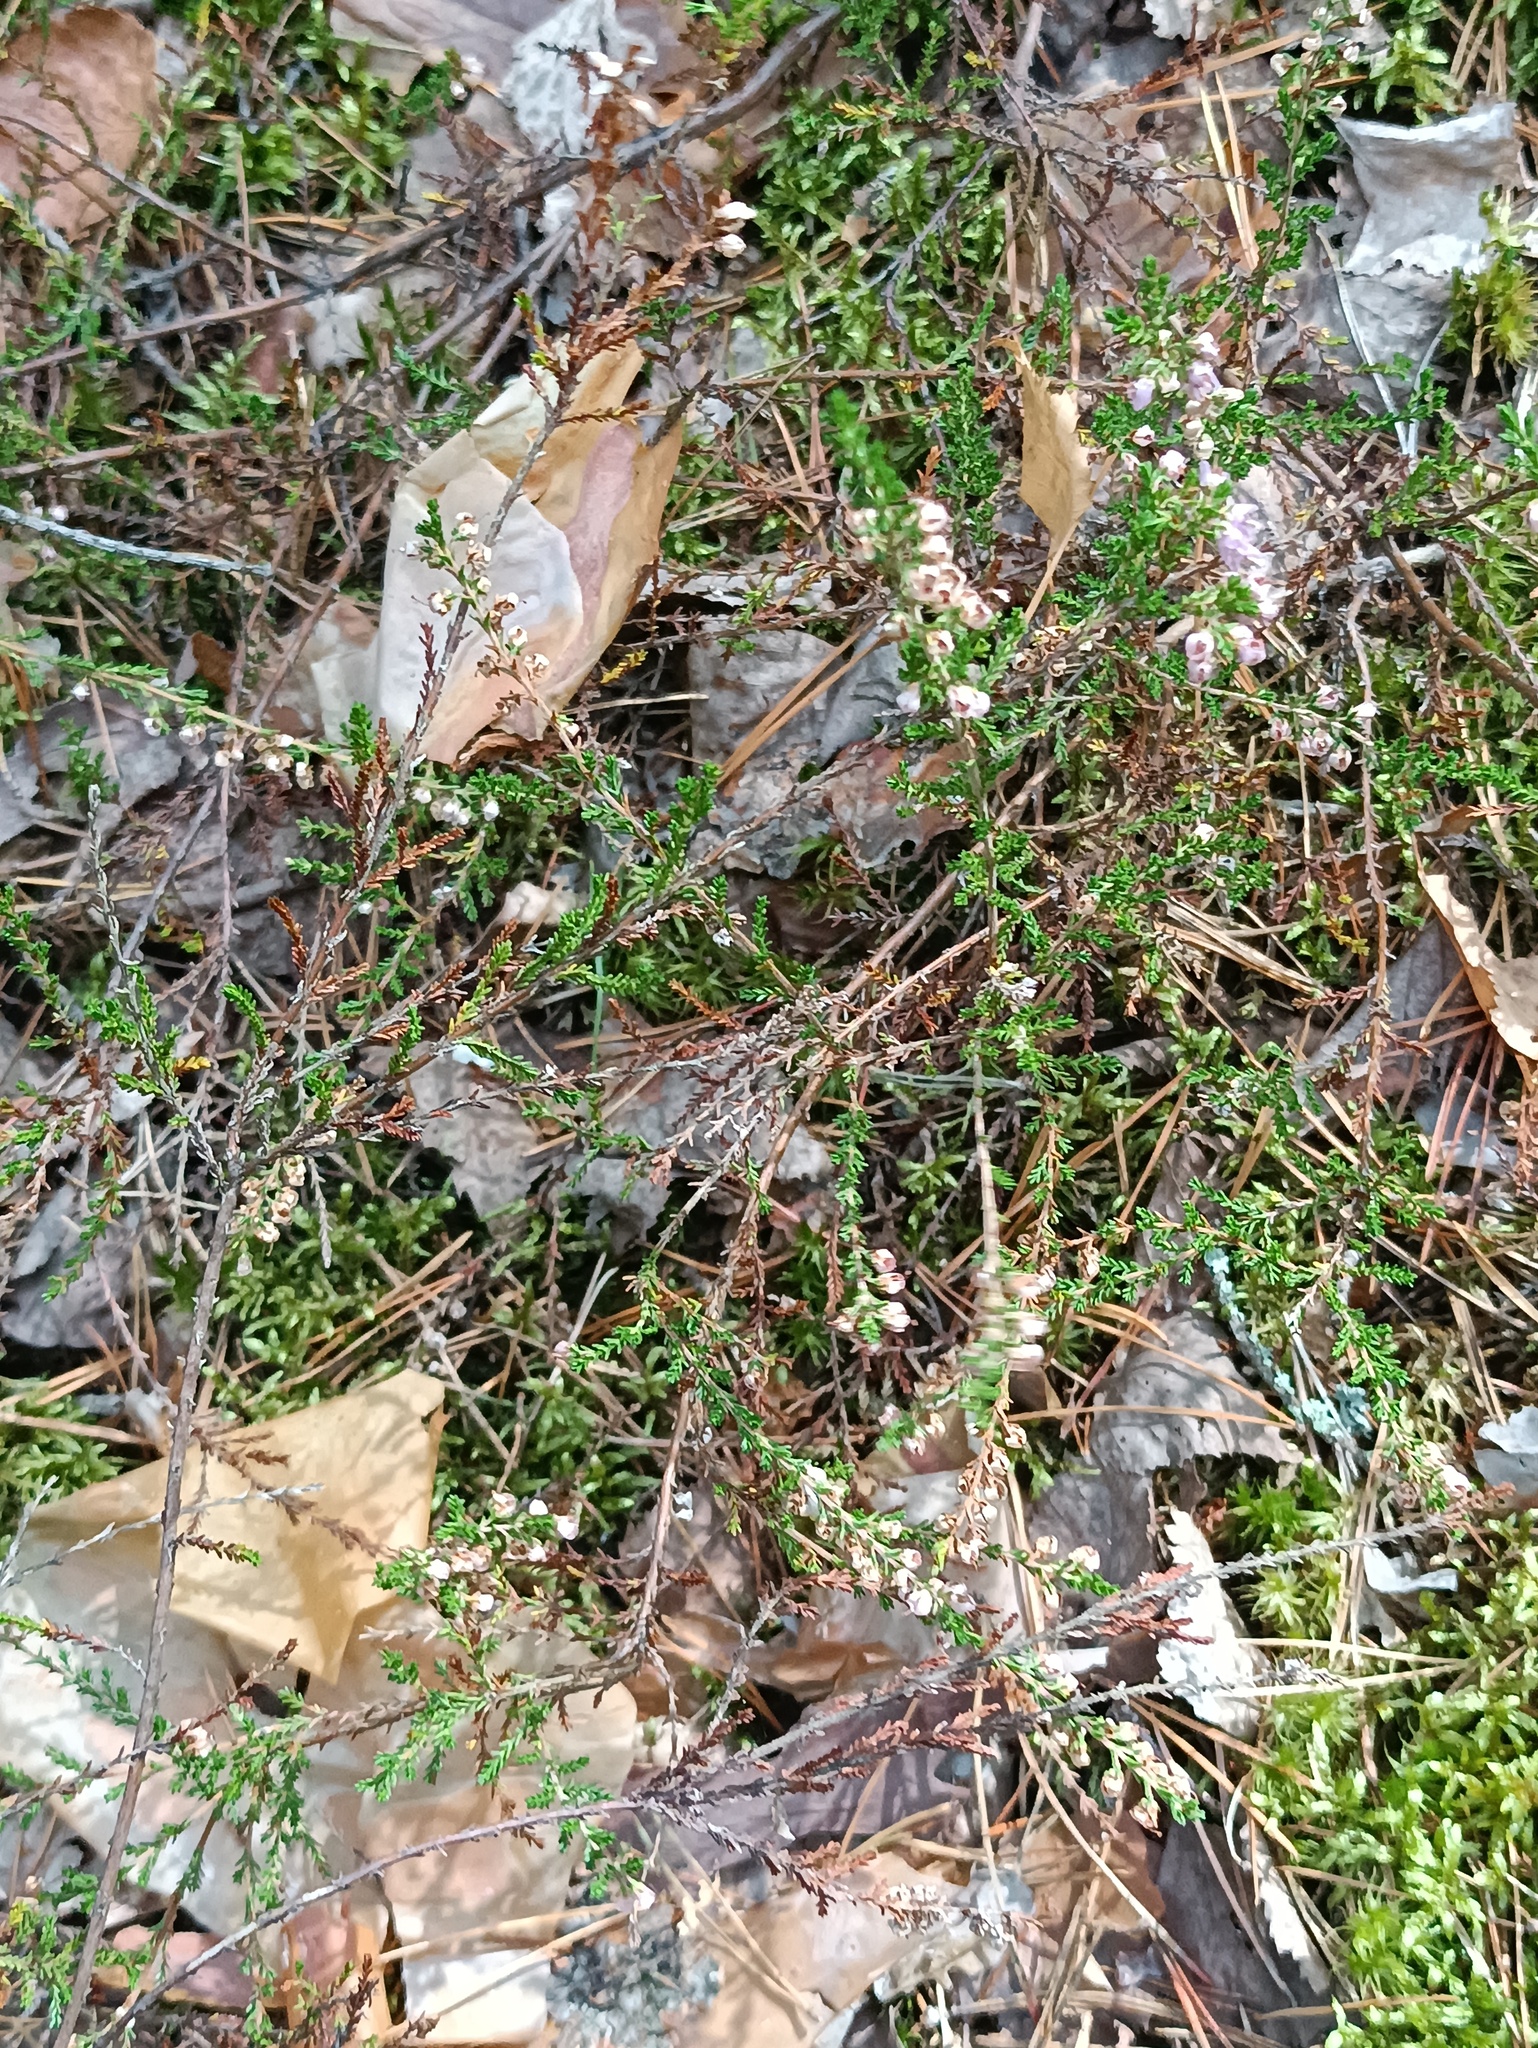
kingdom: Plantae
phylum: Tracheophyta
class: Magnoliopsida
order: Ericales
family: Ericaceae
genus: Calluna
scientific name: Calluna vulgaris
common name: Heather
